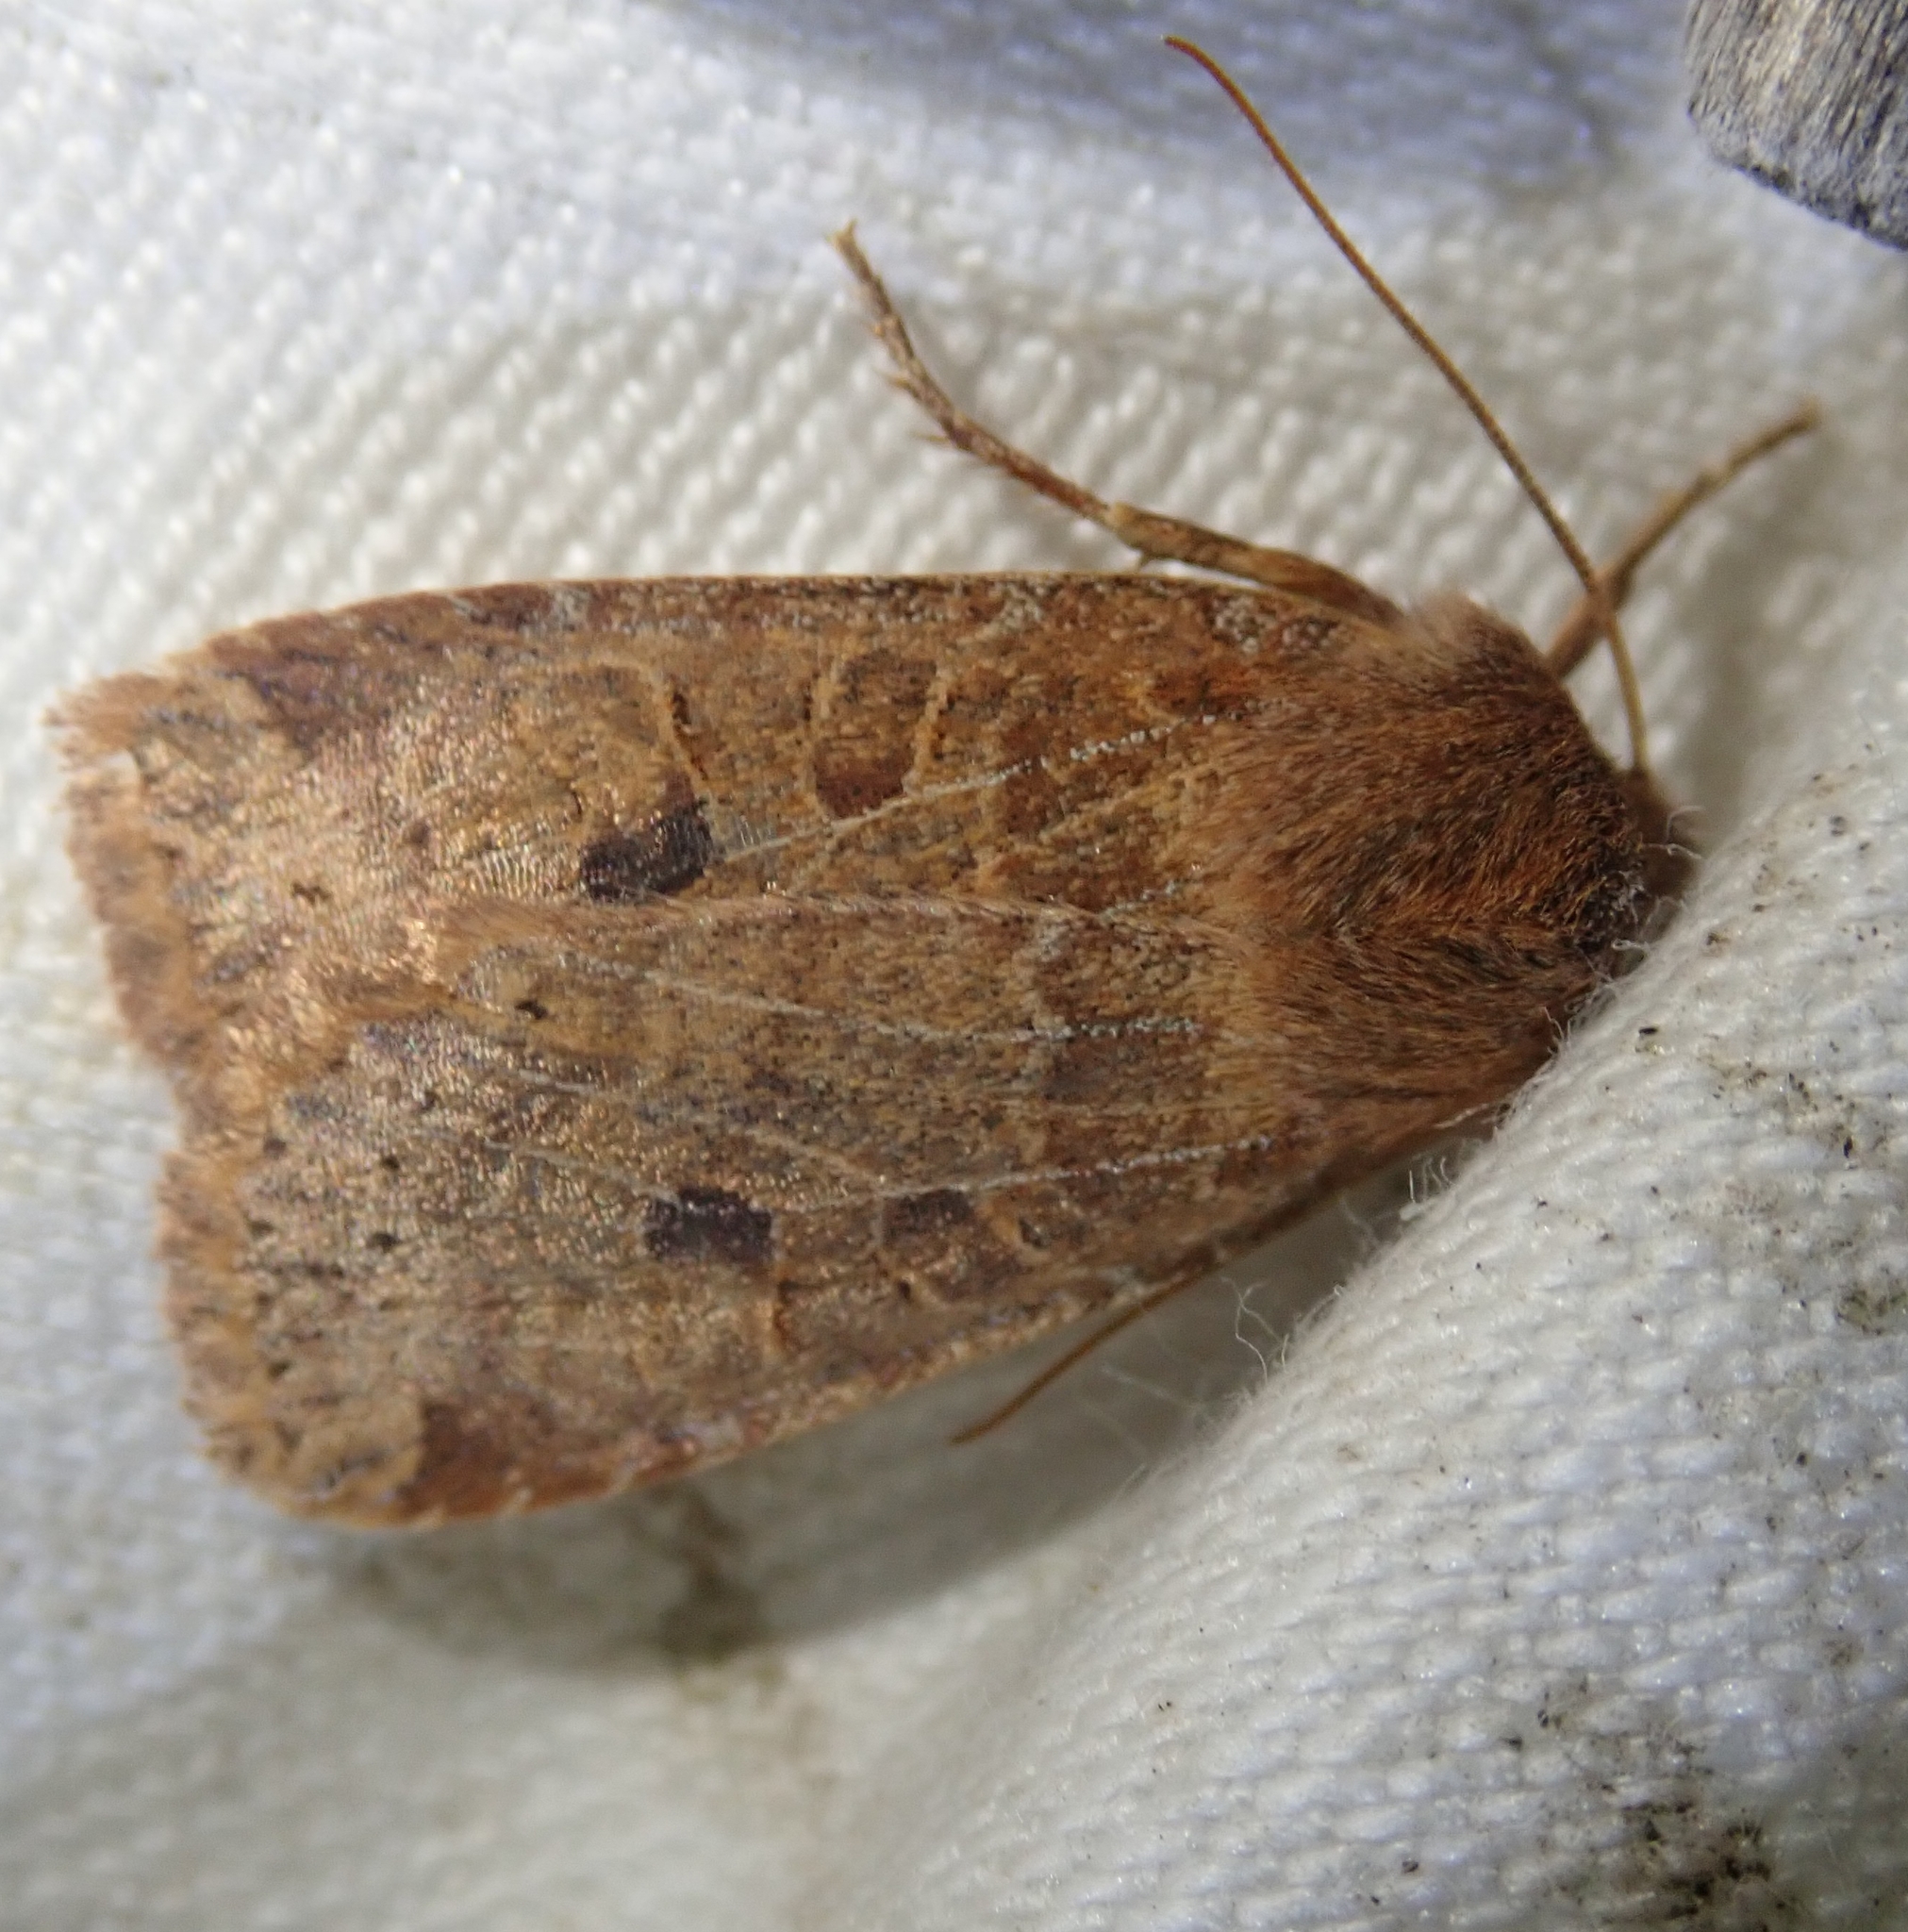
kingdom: Animalia
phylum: Arthropoda
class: Insecta
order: Lepidoptera
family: Noctuidae
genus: Conistra
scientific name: Conistra vaccinii
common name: Chestnut
